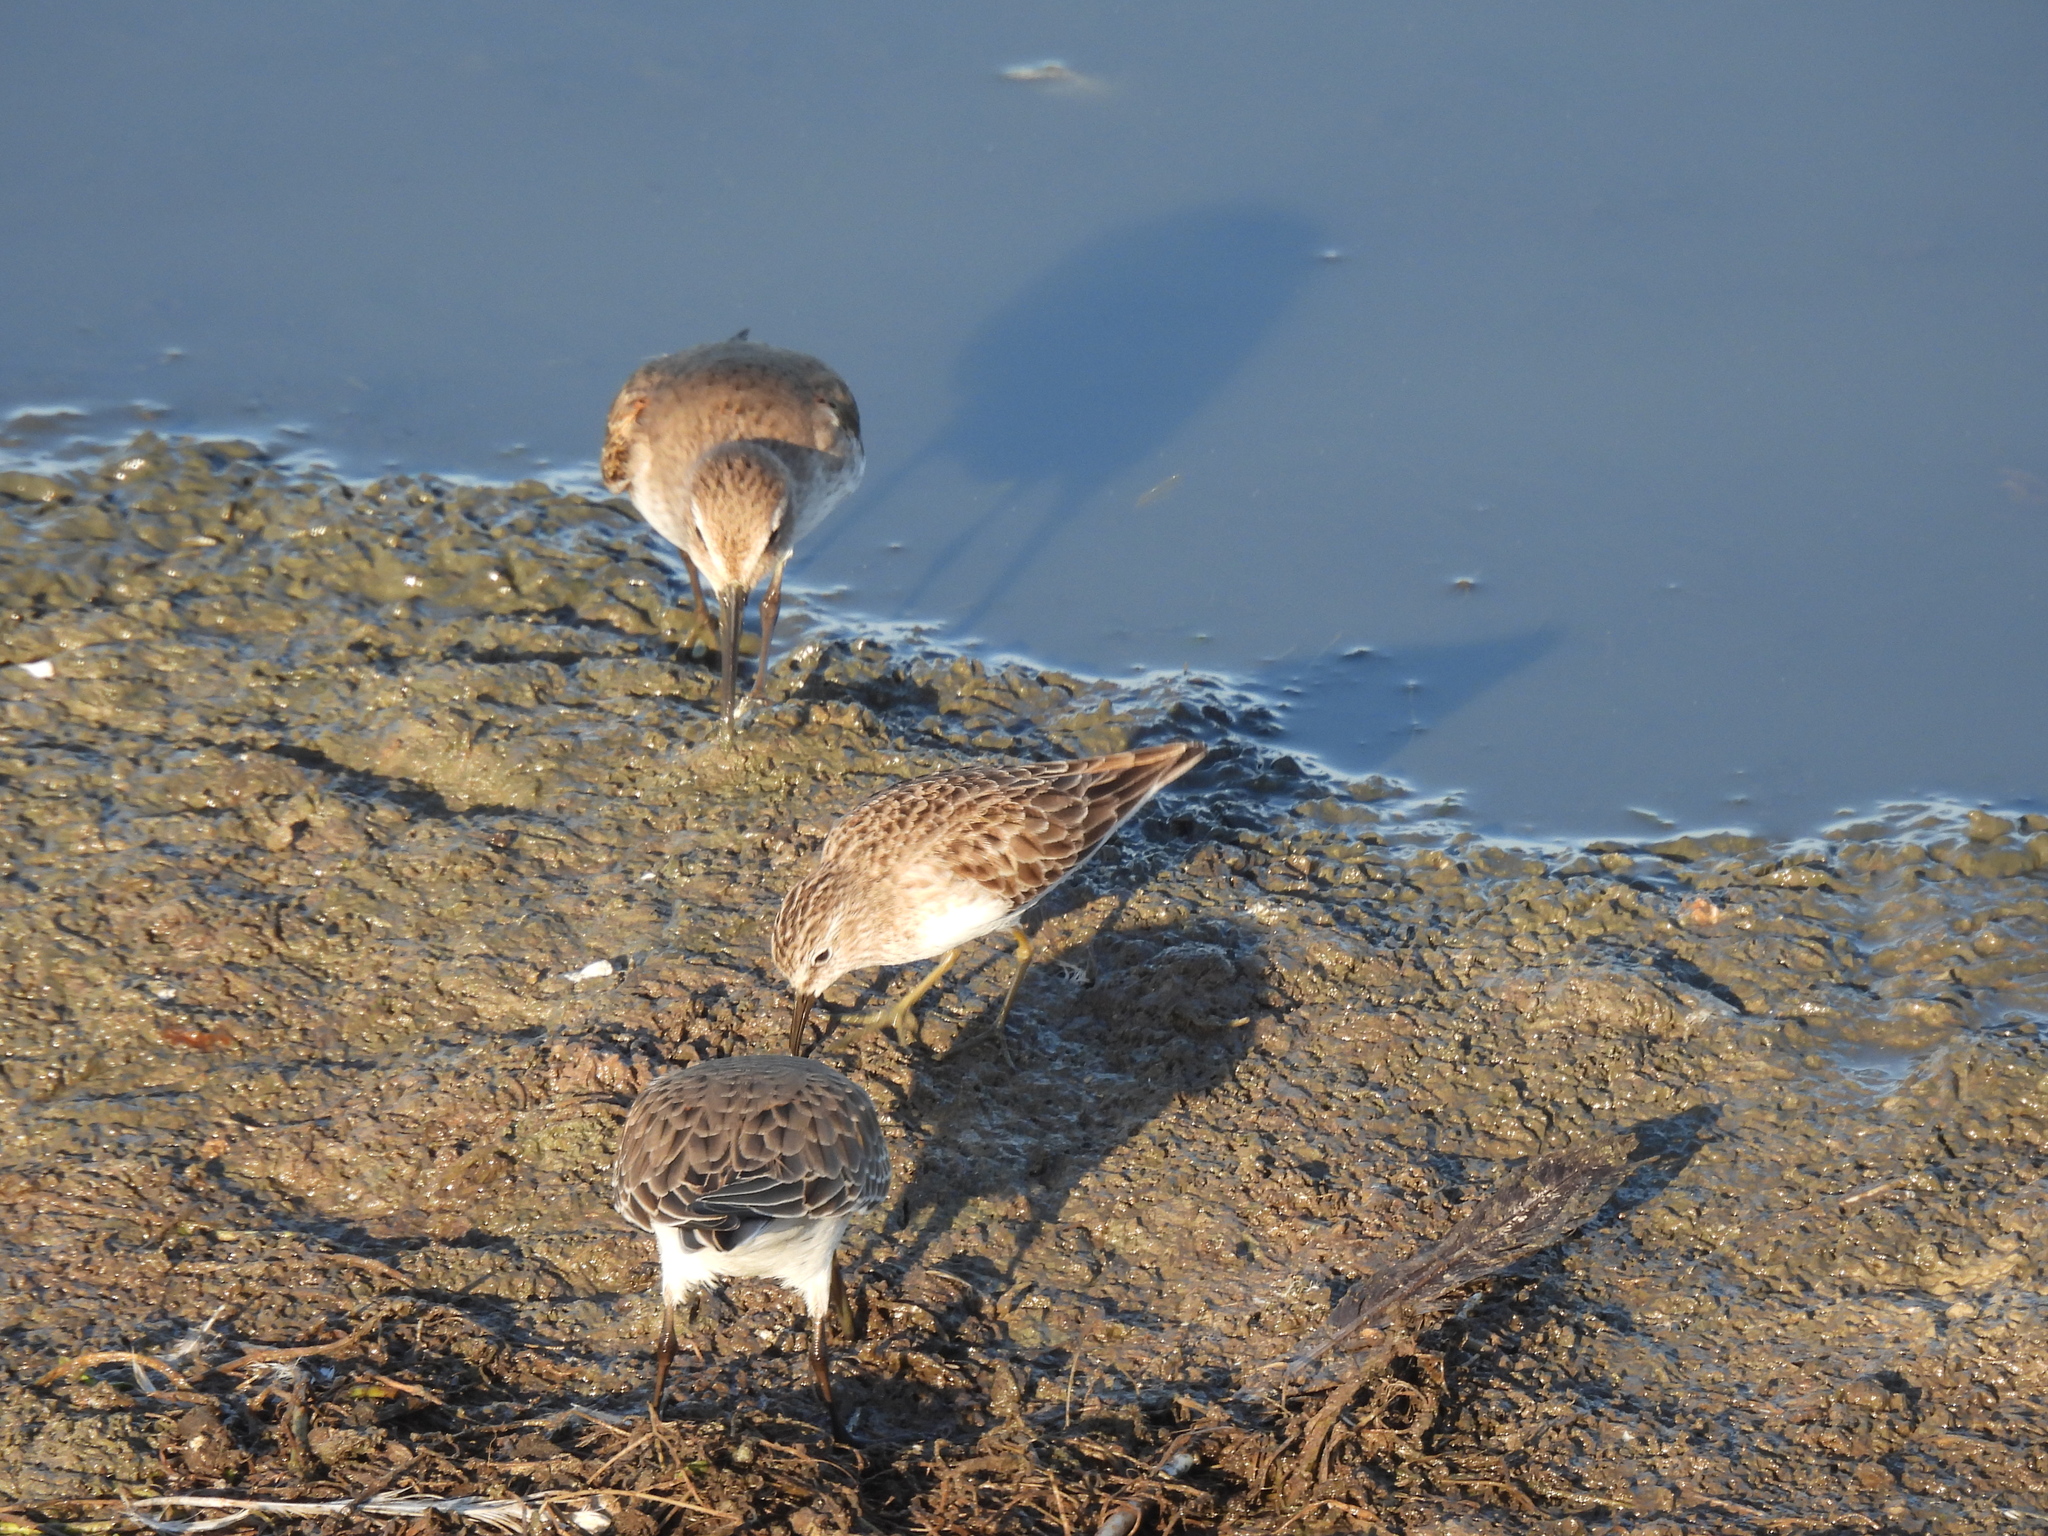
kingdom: Animalia
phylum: Chordata
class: Aves
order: Charadriiformes
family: Scolopacidae
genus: Calidris
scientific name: Calidris minutilla
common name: Least sandpiper
